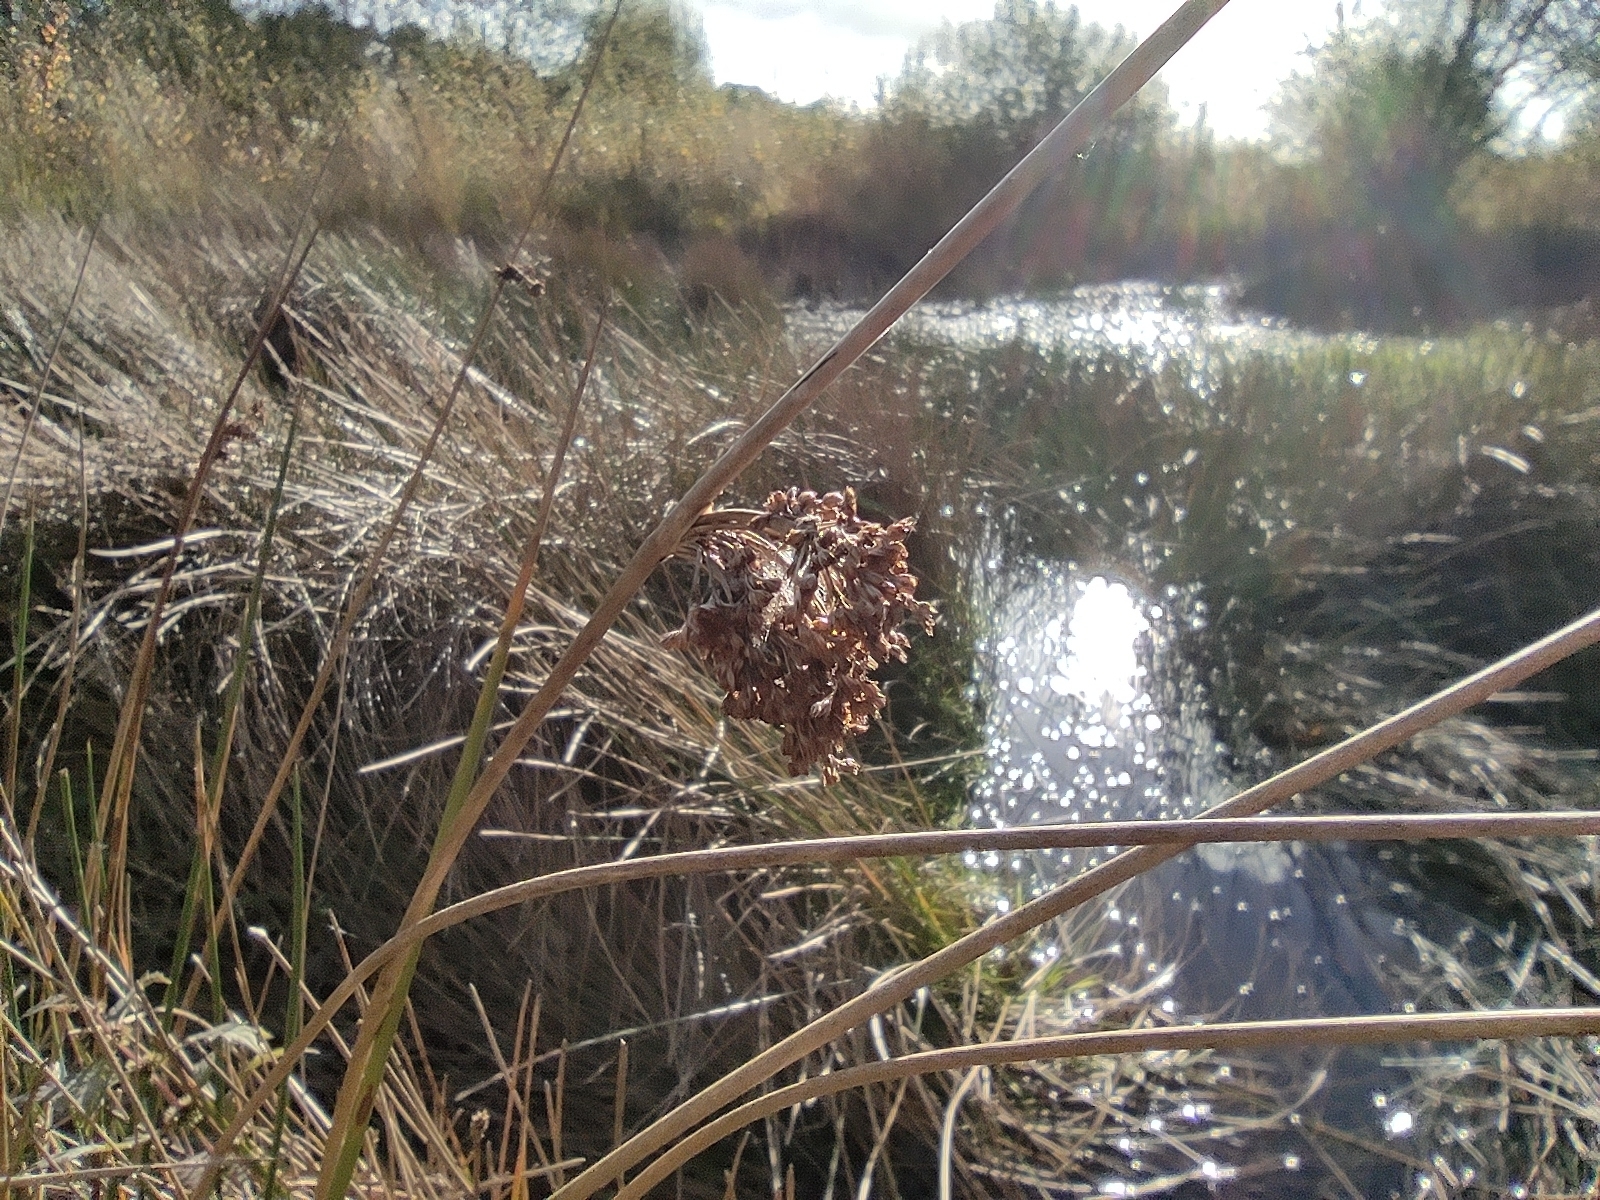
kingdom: Plantae
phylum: Tracheophyta
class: Liliopsida
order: Poales
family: Juncaceae
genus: Juncus
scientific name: Juncus effusus
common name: Soft rush
